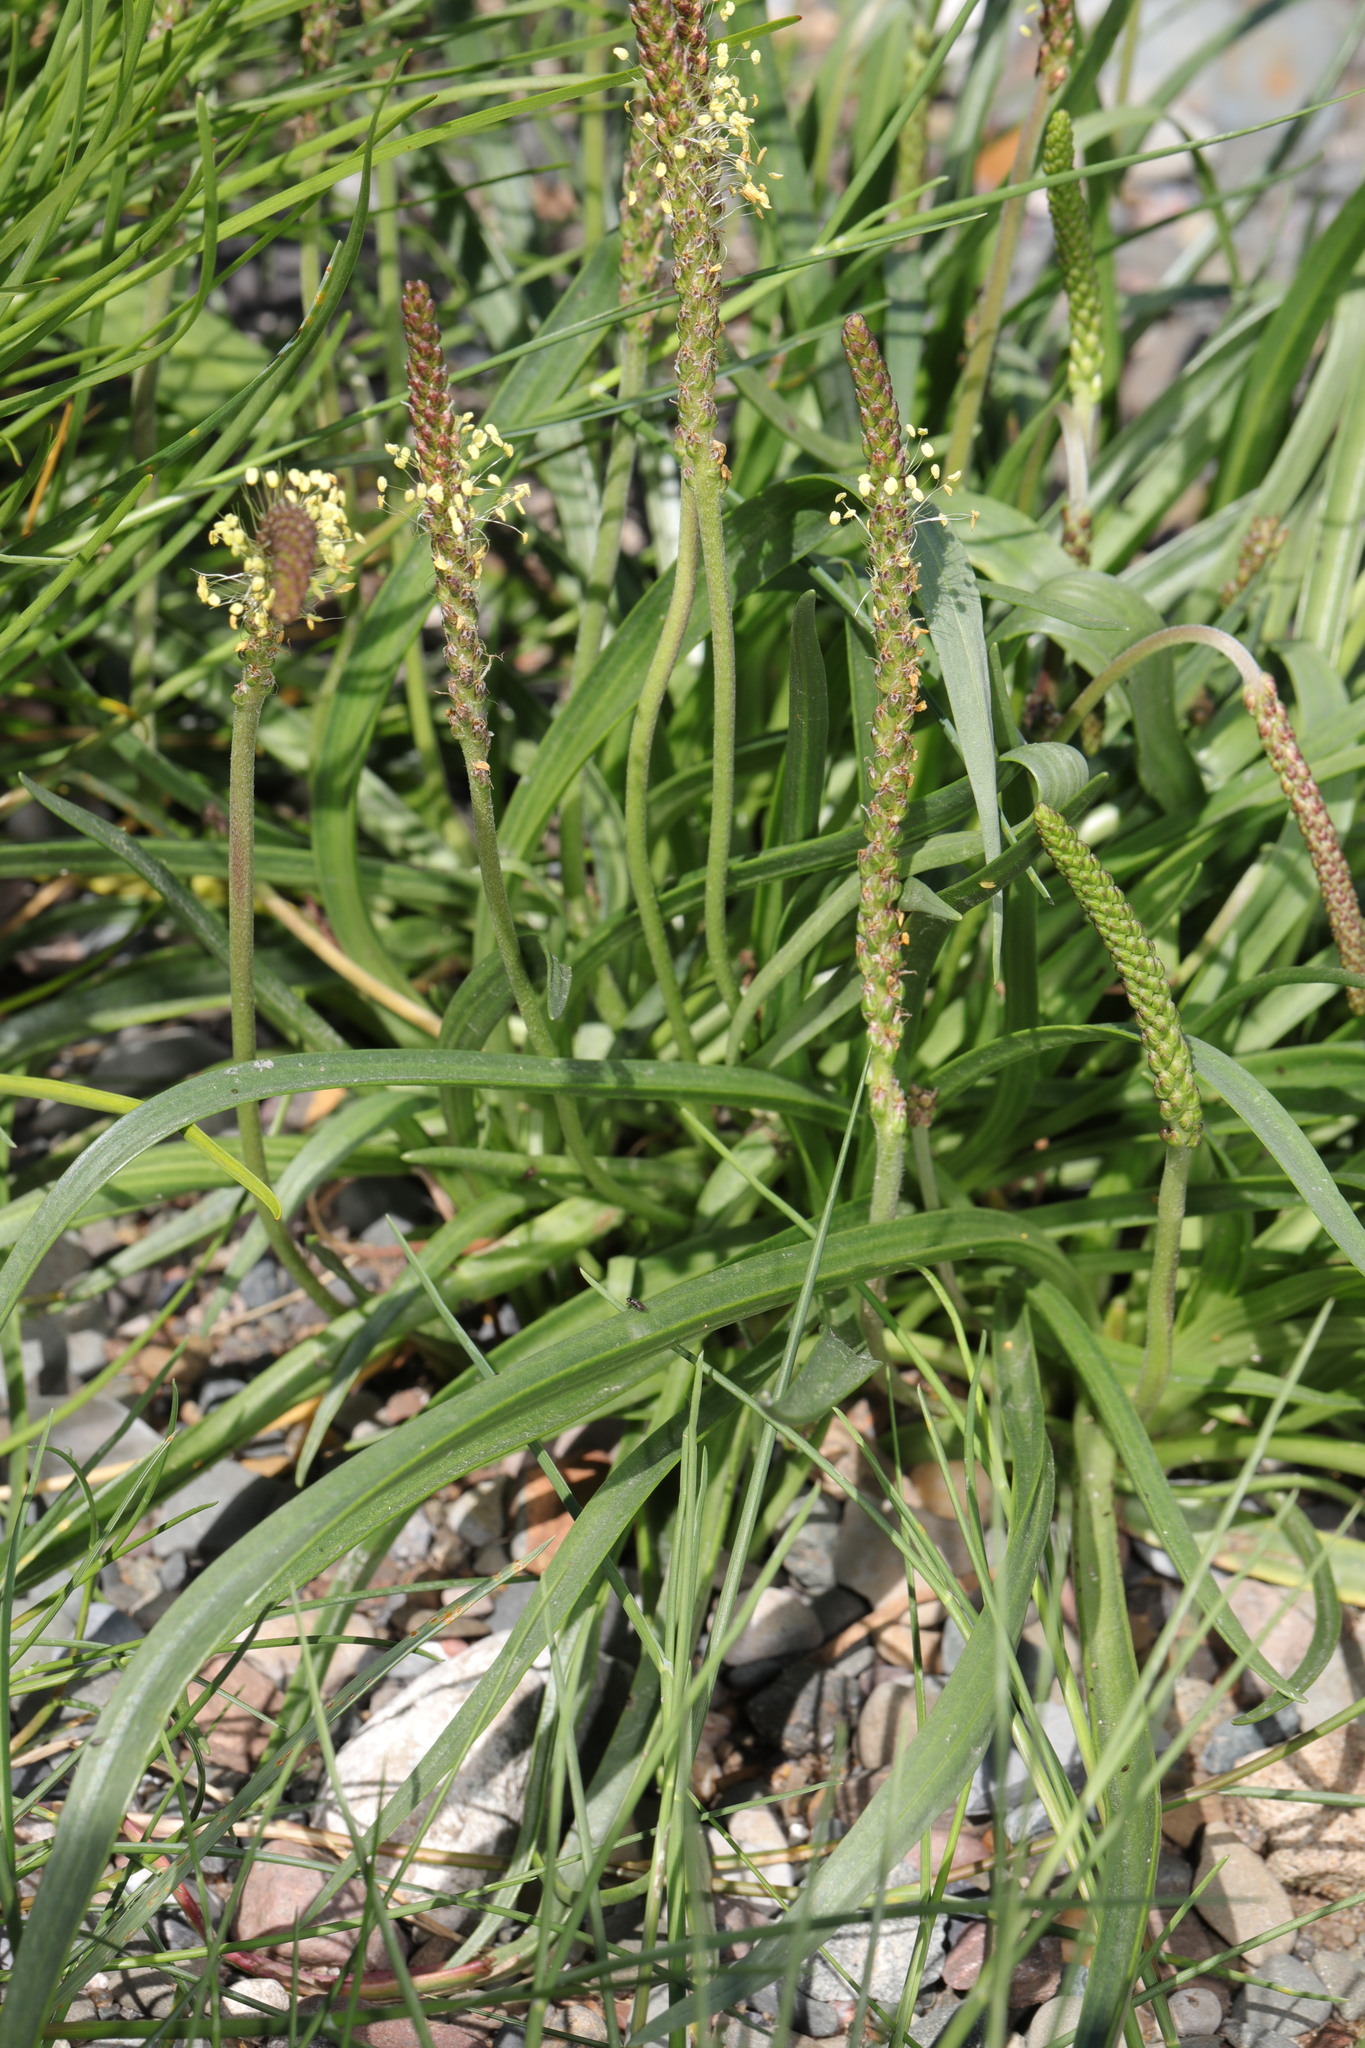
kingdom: Plantae
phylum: Tracheophyta
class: Magnoliopsida
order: Lamiales
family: Plantaginaceae
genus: Plantago
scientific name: Plantago maritima
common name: Sea plantain
